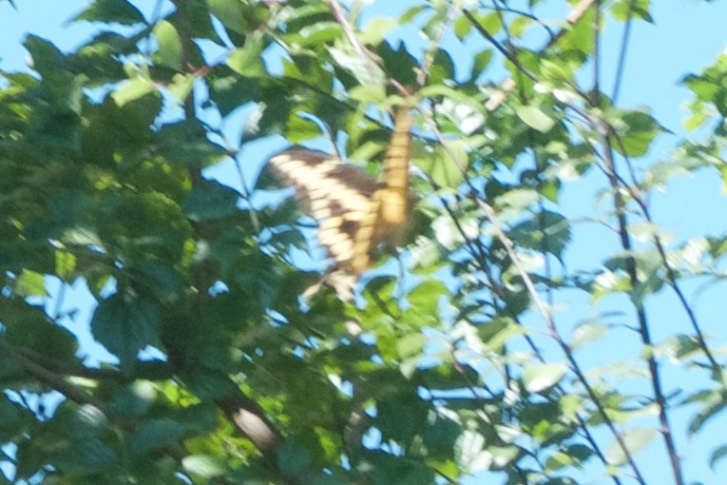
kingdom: Animalia
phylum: Arthropoda
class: Insecta
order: Lepidoptera
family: Papilionidae
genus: Papilio
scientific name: Papilio rumiko
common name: Western giant swallowtail
